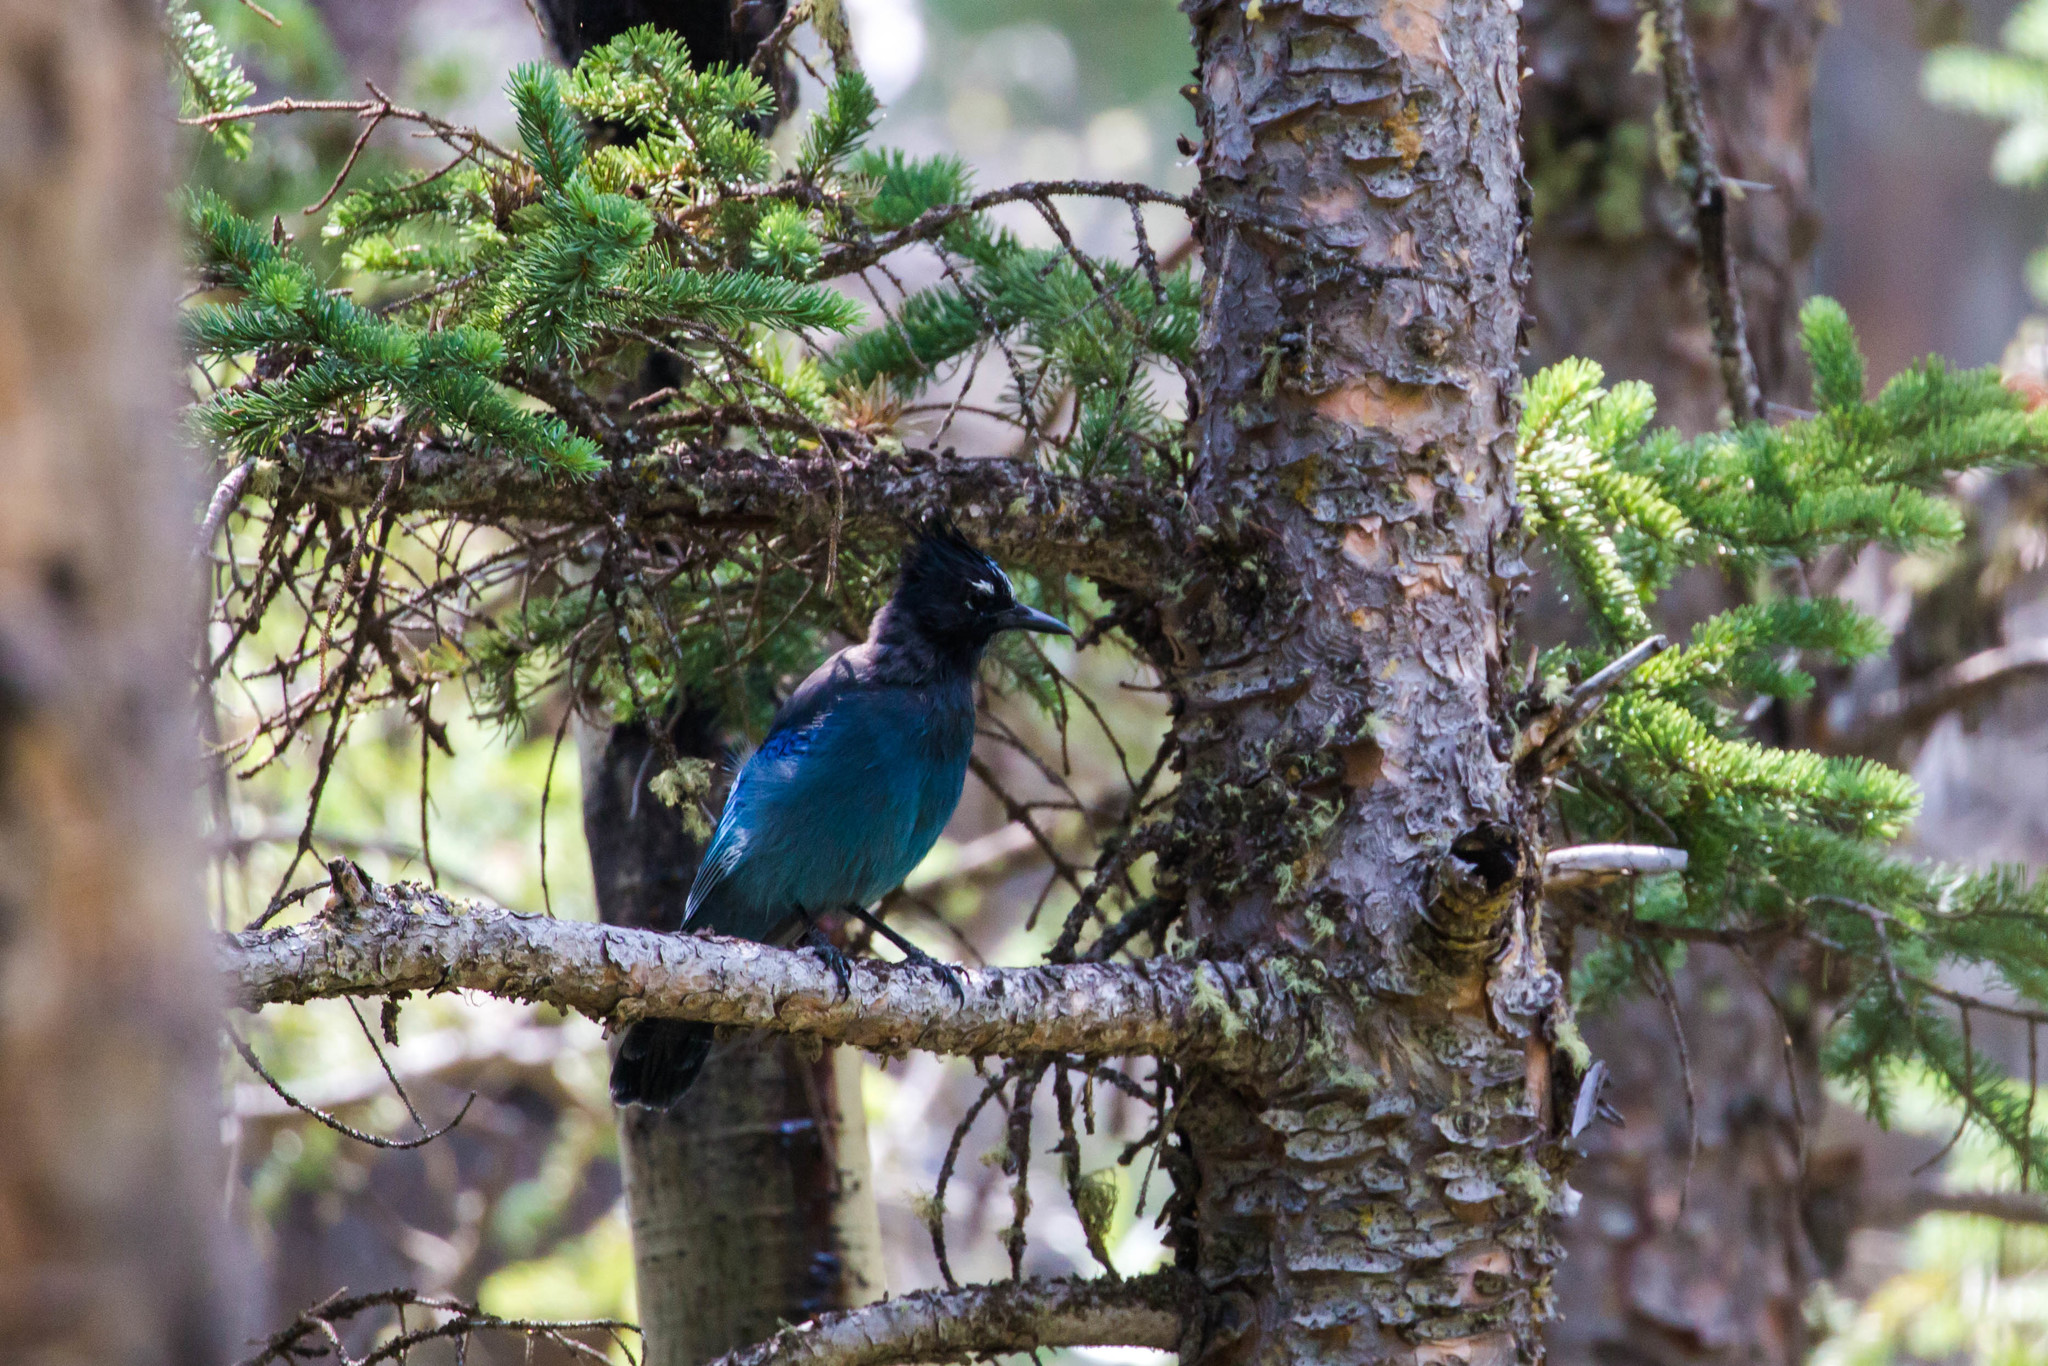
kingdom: Animalia
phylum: Chordata
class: Aves
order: Passeriformes
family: Corvidae
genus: Cyanocitta
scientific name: Cyanocitta stelleri
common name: Steller's jay
